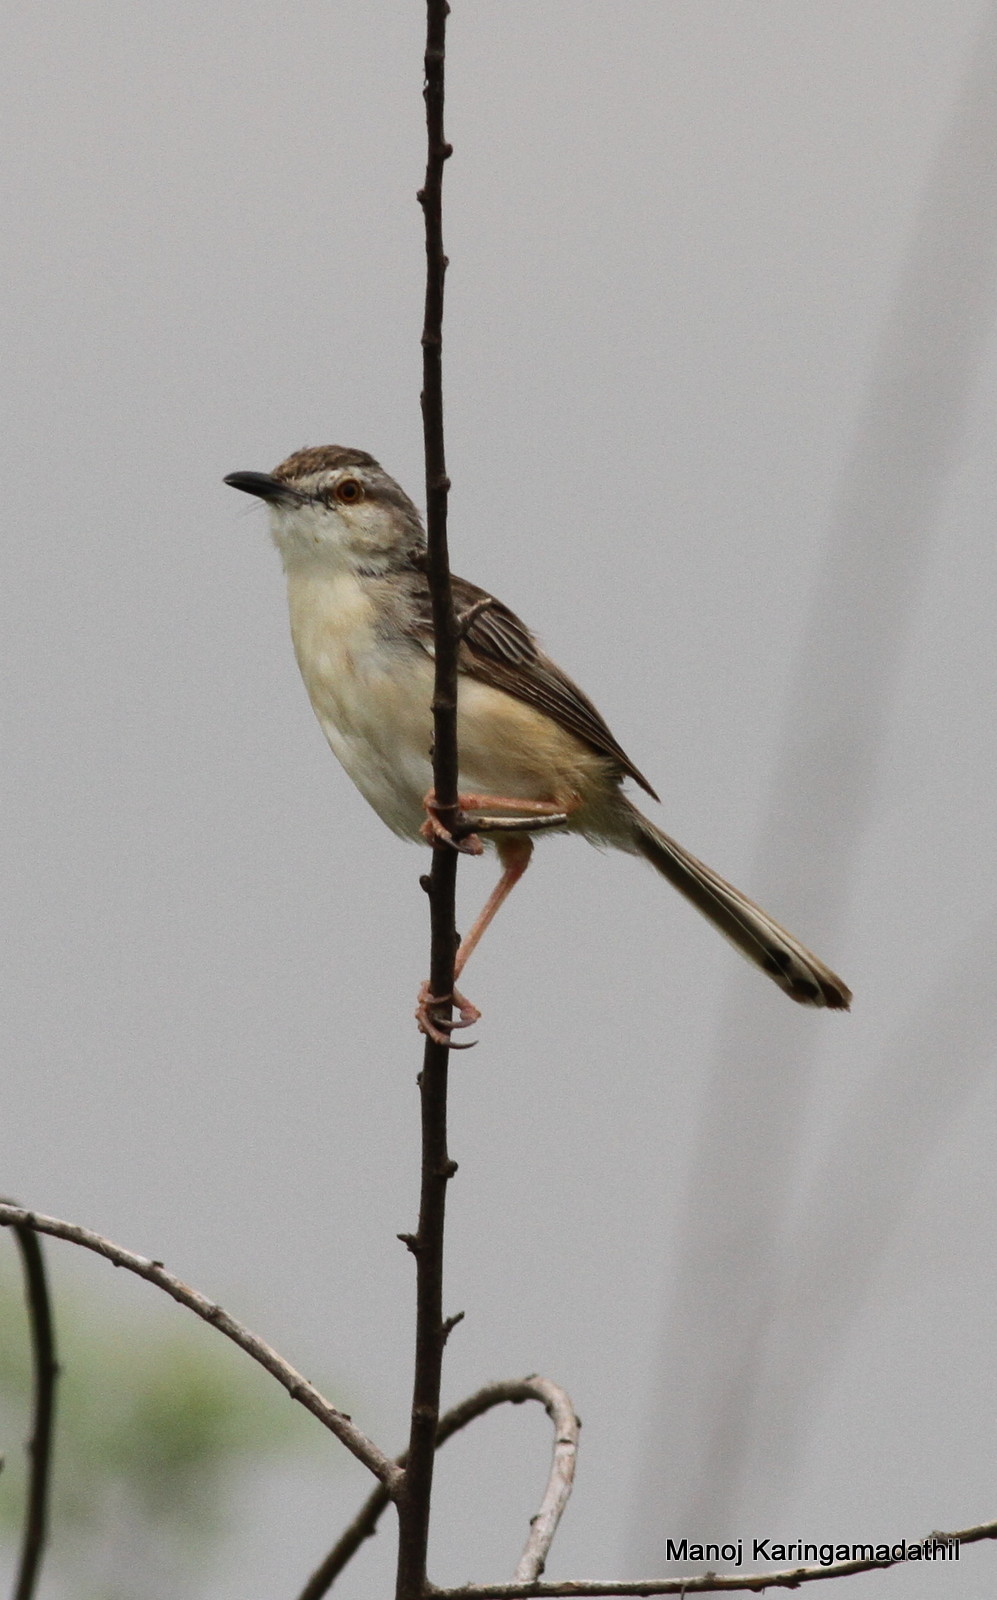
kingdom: Animalia
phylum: Chordata
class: Aves
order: Passeriformes
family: Cisticolidae
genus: Prinia
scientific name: Prinia inornata
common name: Plain prinia
